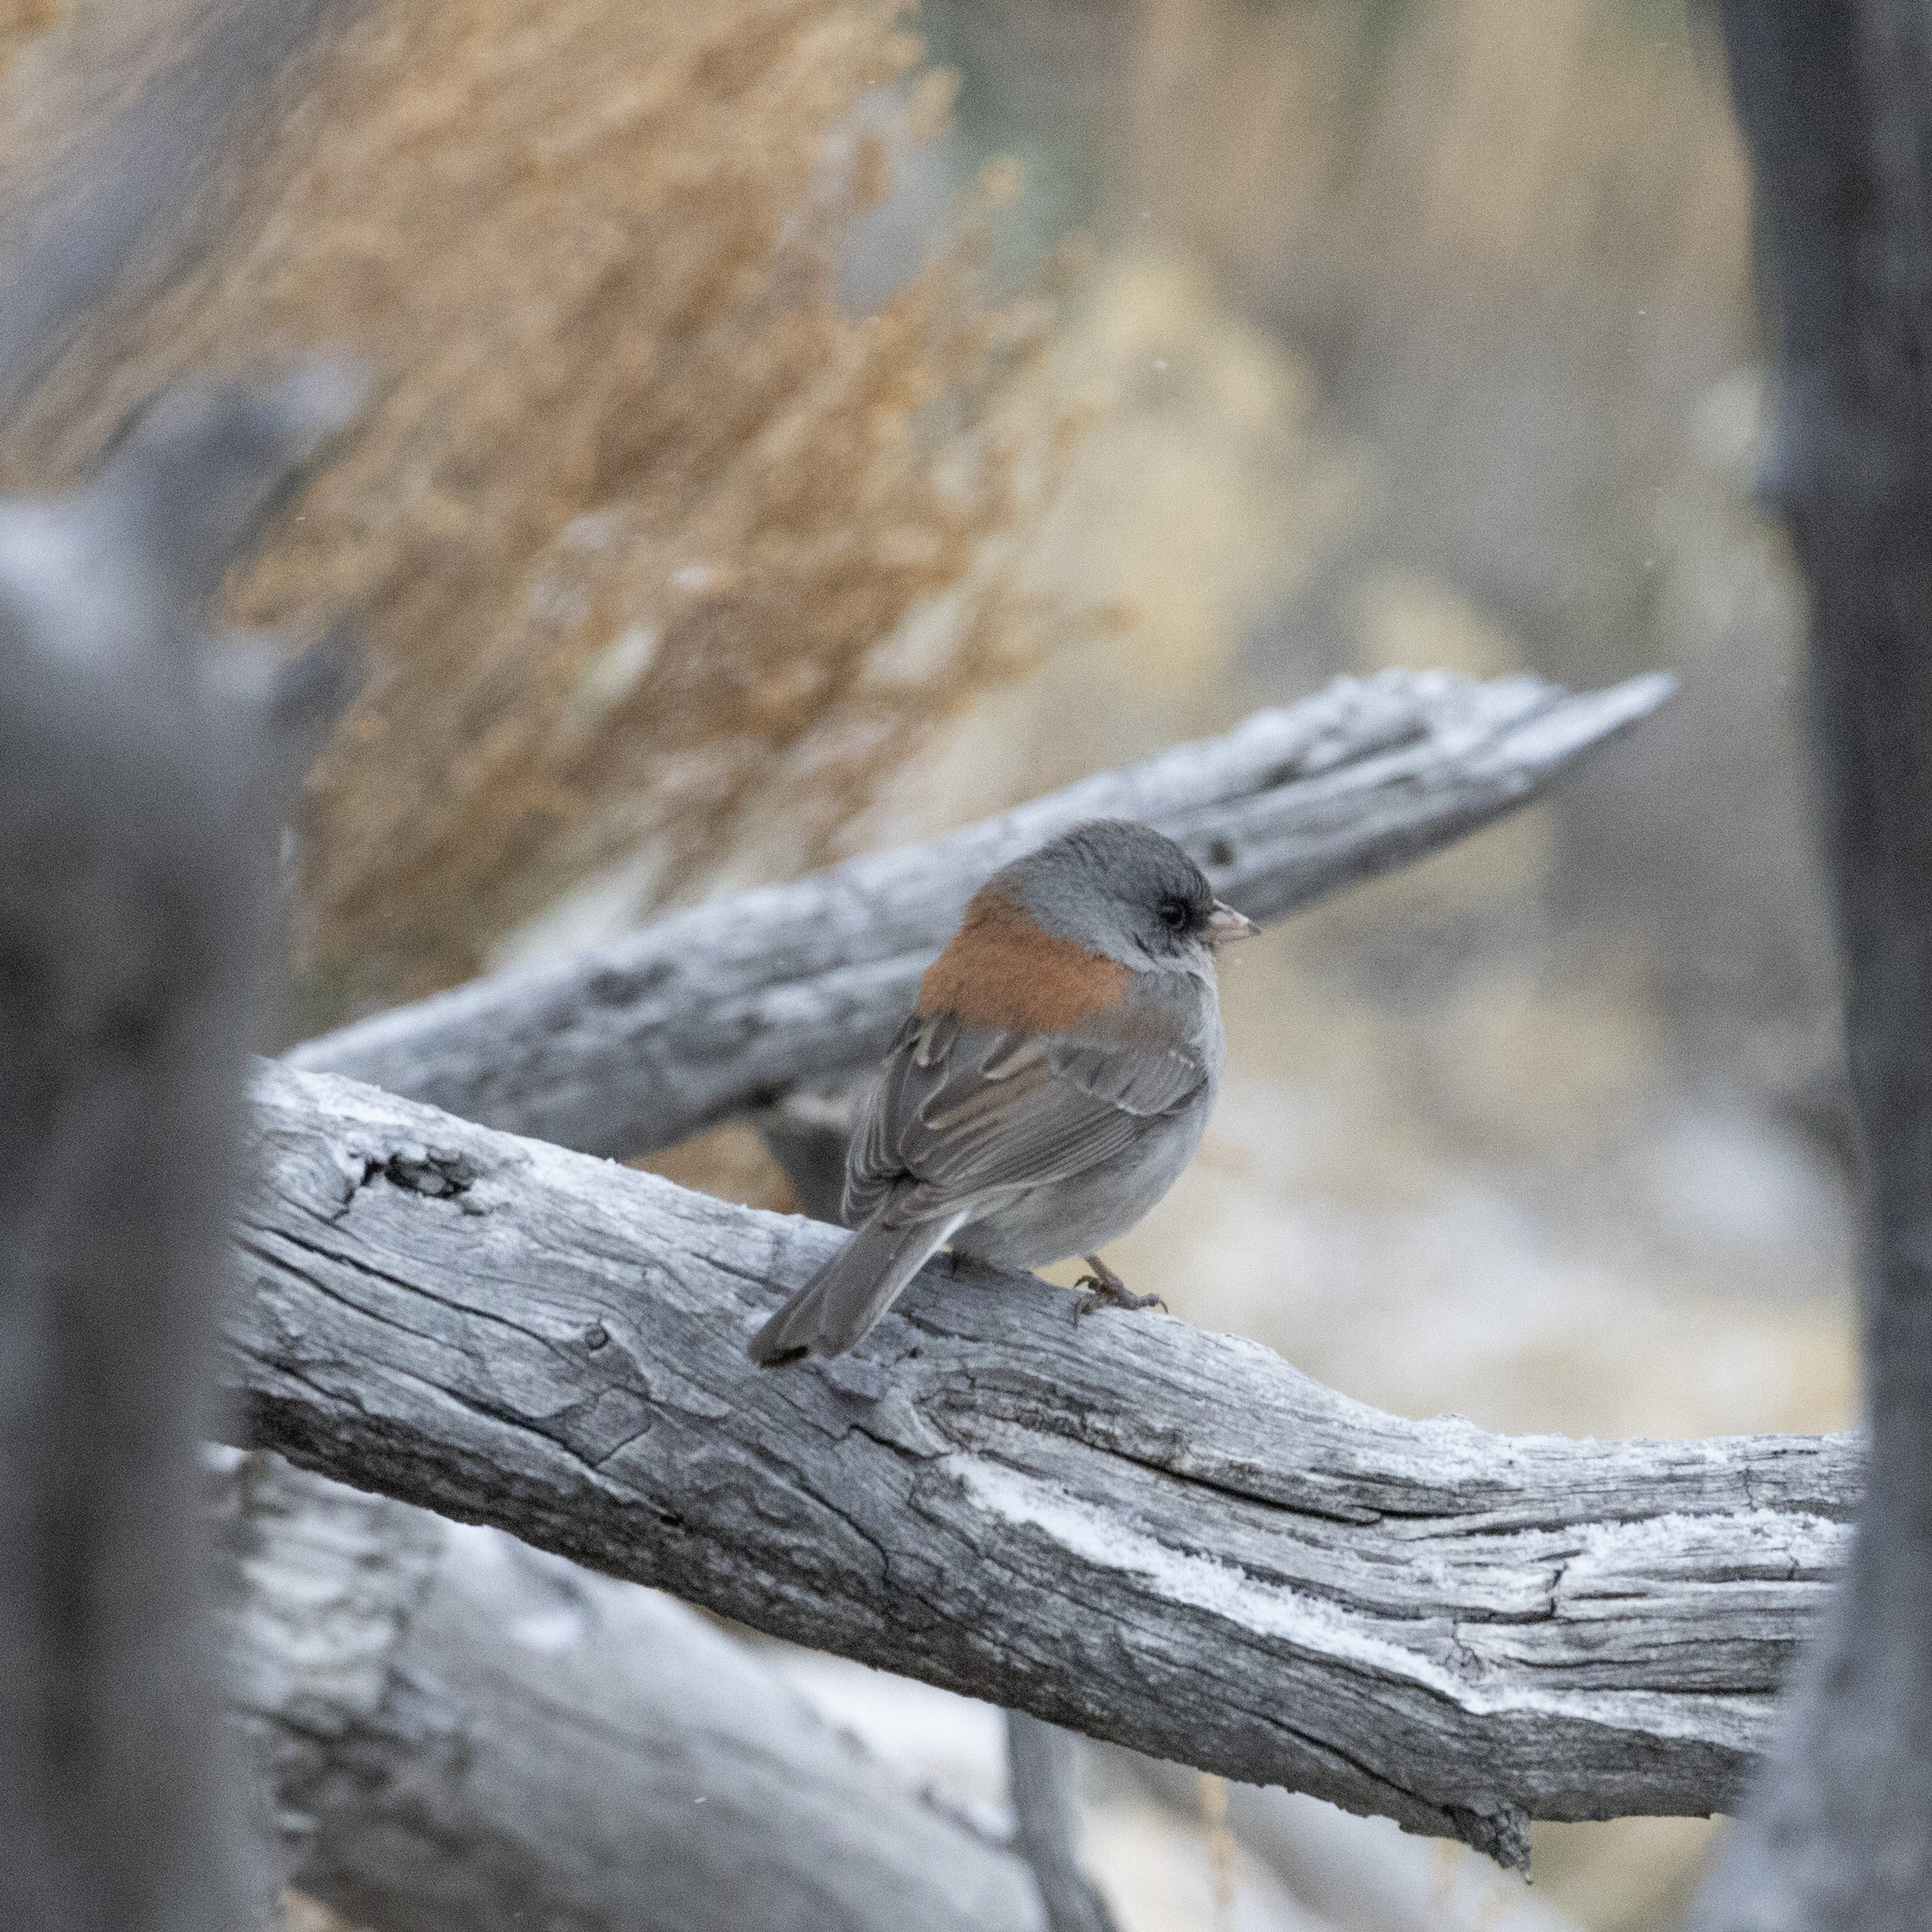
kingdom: Animalia
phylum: Chordata
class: Aves
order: Passeriformes
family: Passerellidae
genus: Junco
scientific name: Junco hyemalis
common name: Dark-eyed junco
